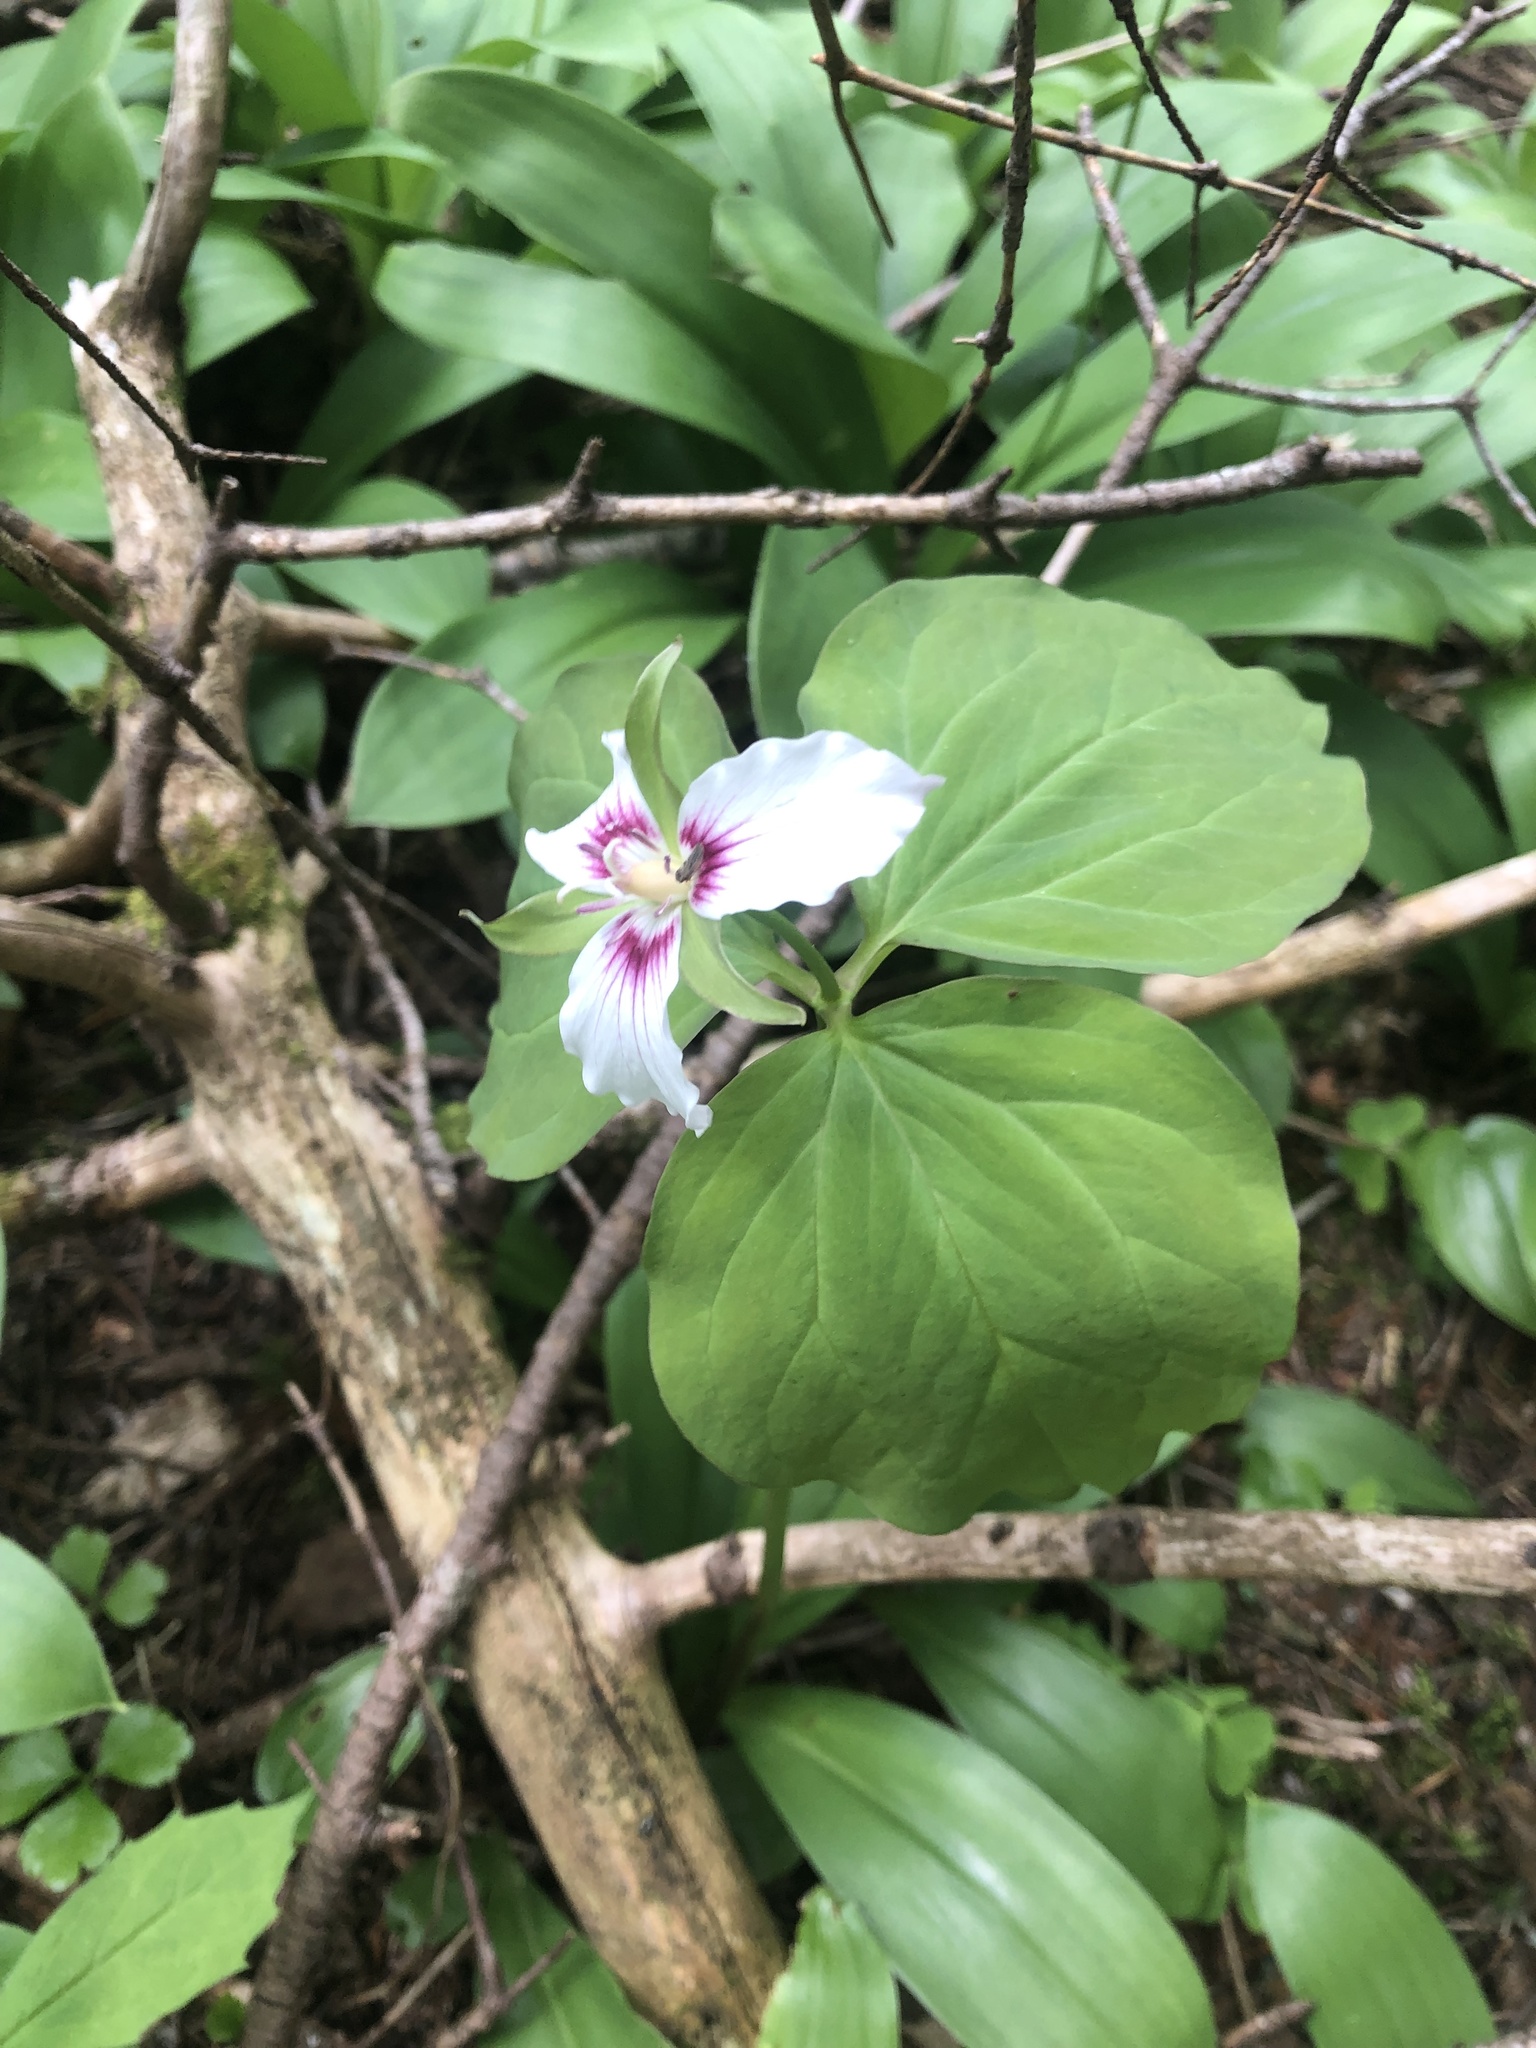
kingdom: Plantae
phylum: Tracheophyta
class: Liliopsida
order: Liliales
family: Melanthiaceae
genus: Trillium
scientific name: Trillium undulatum
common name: Paint trillium
